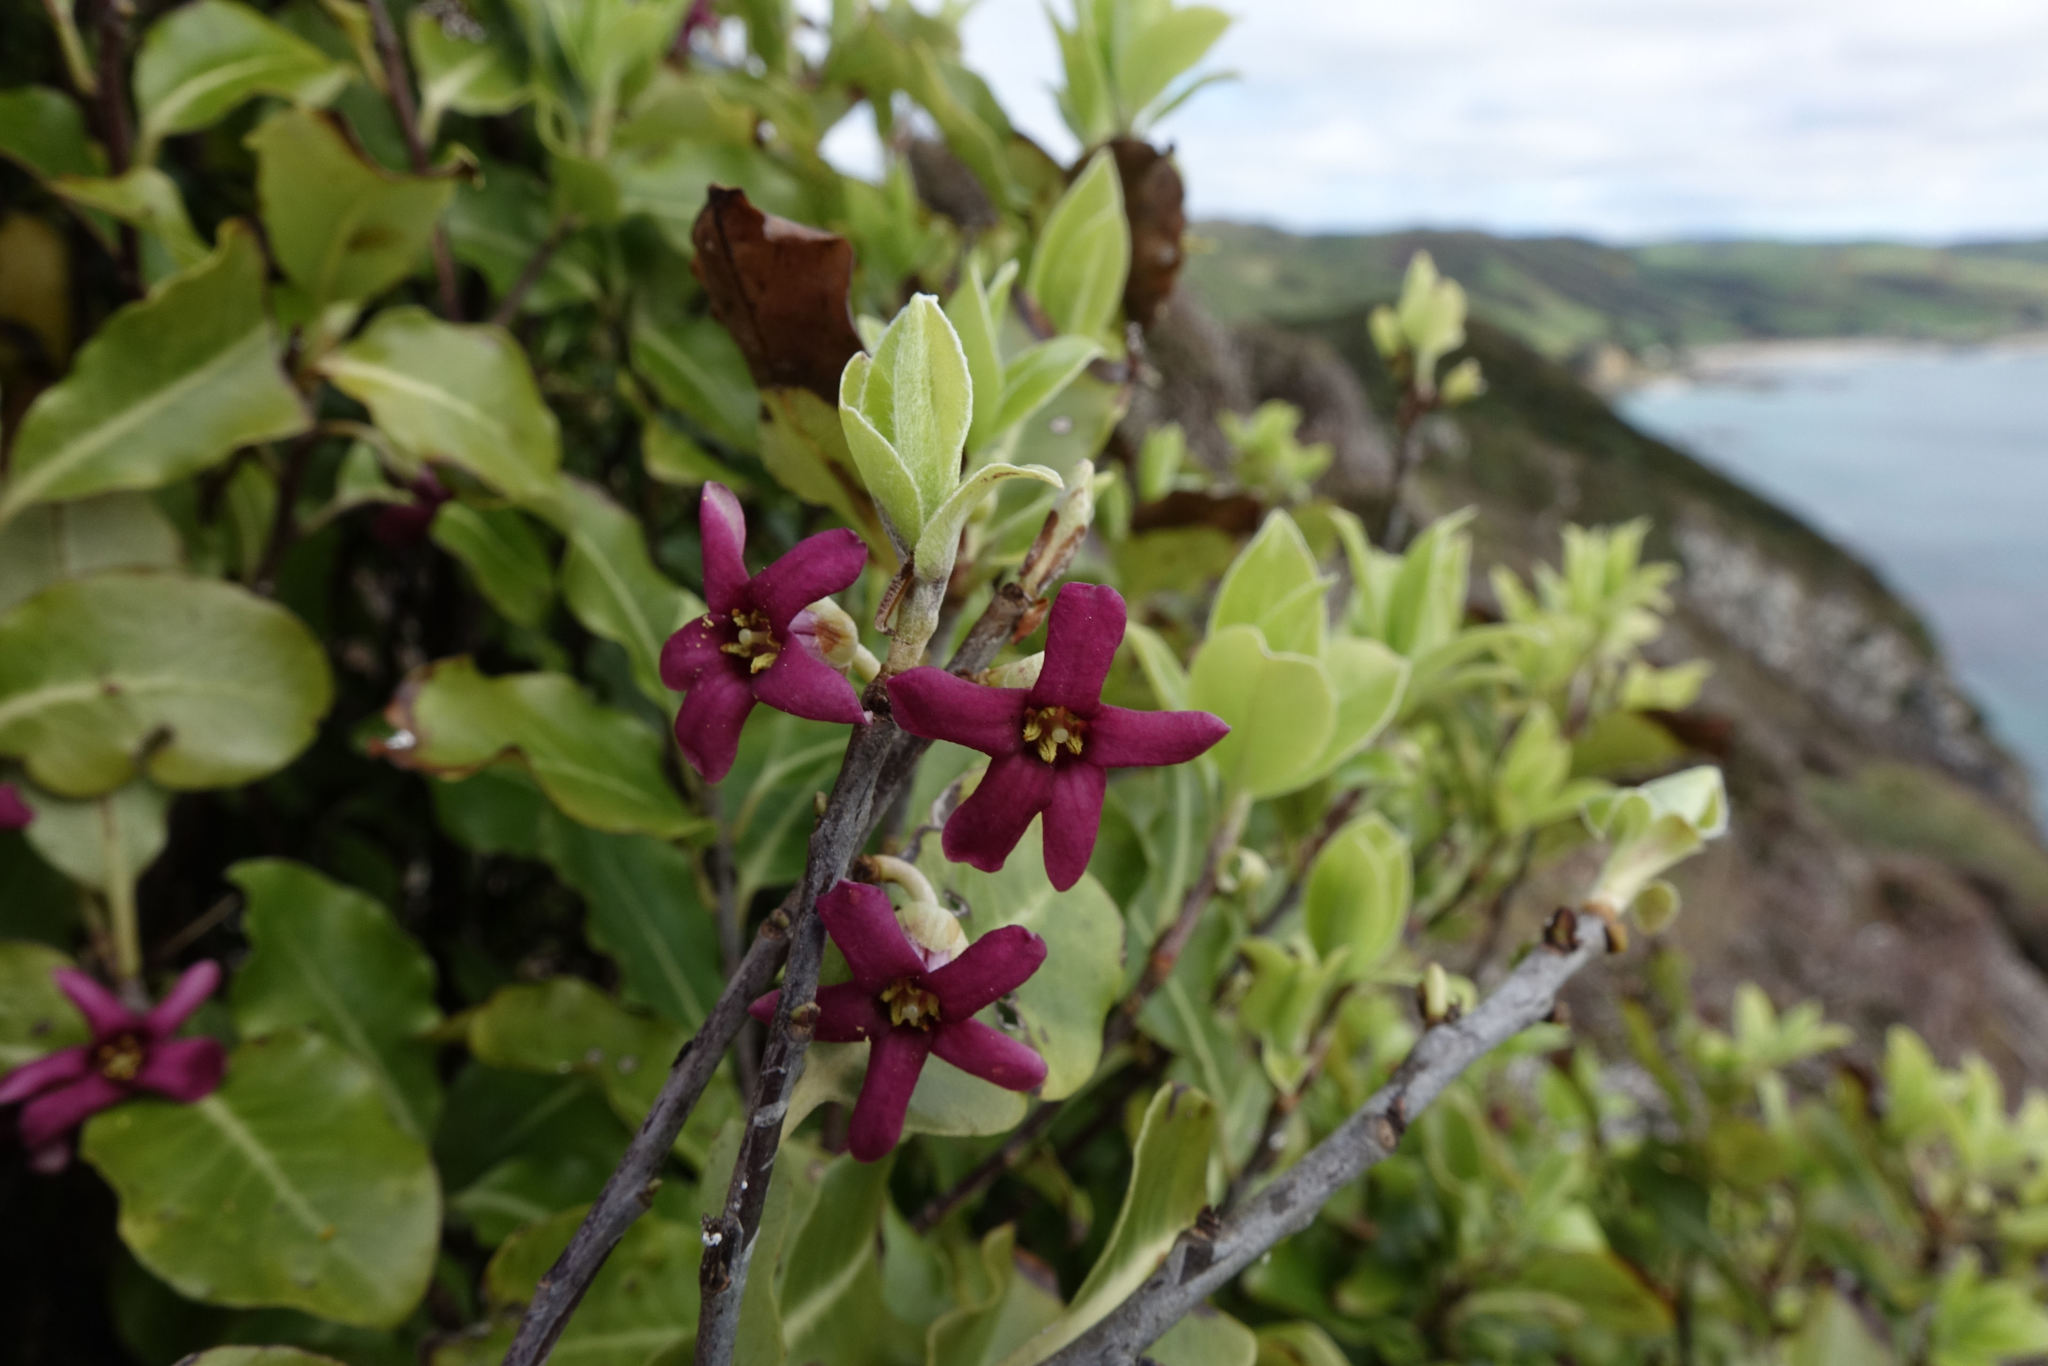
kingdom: Plantae
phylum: Tracheophyta
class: Magnoliopsida
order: Apiales
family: Pittosporaceae
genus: Pittosporum
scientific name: Pittosporum tenuifolium
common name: Kohuhu
